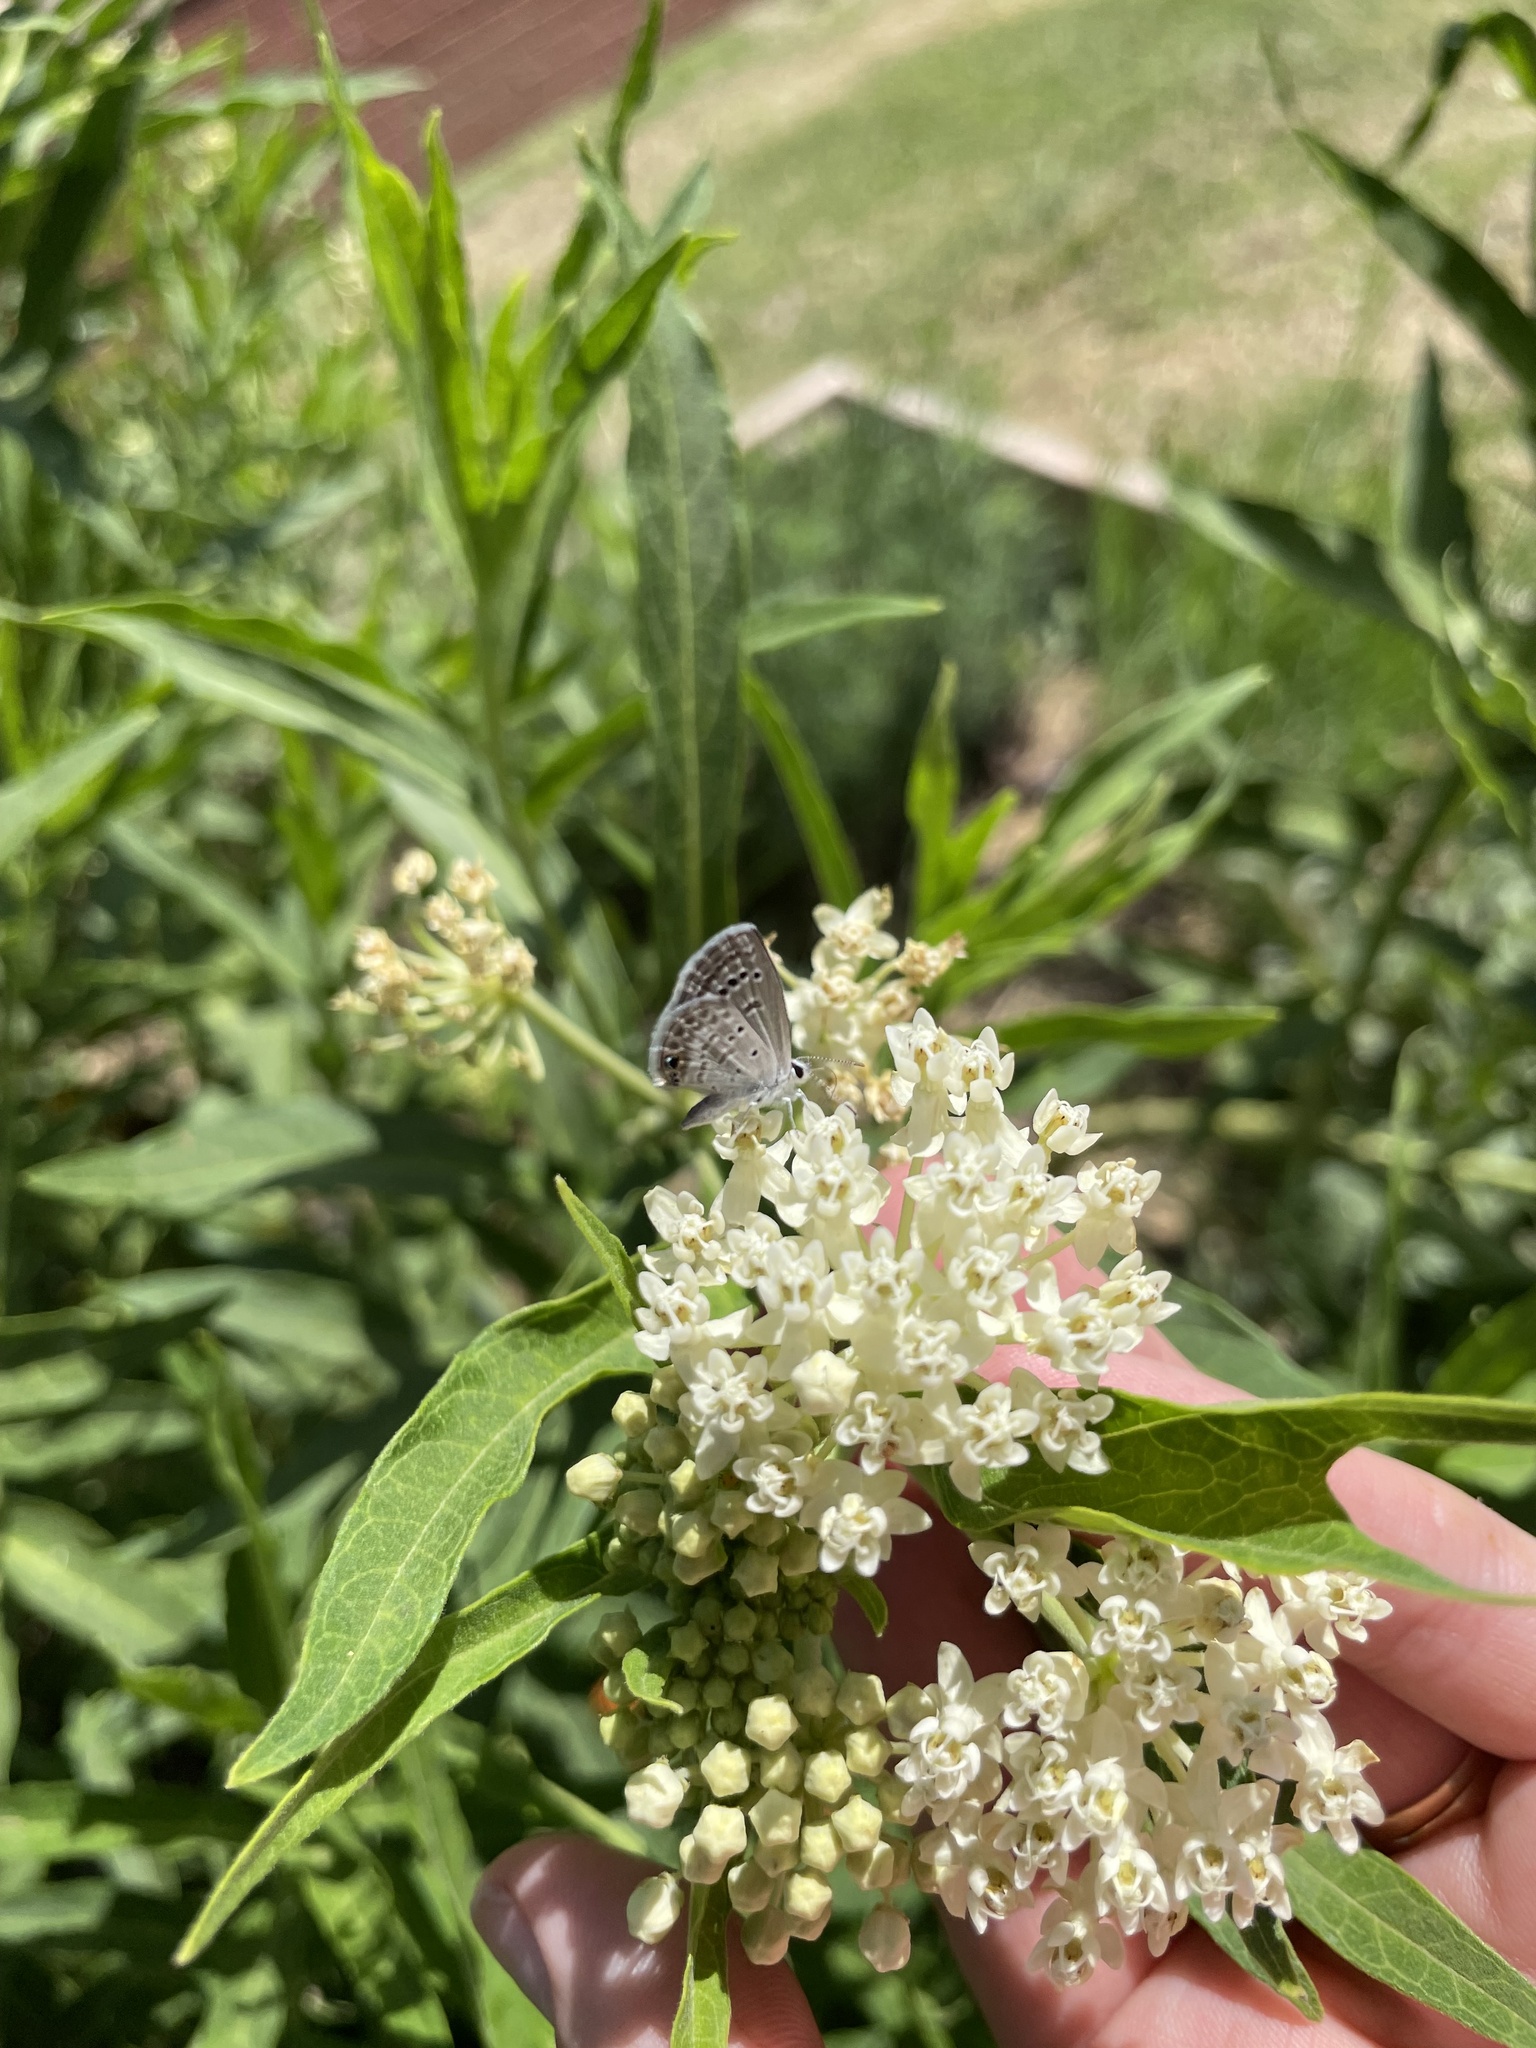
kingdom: Animalia
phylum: Arthropoda
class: Insecta
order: Lepidoptera
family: Lycaenidae
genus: Echinargus
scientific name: Echinargus isola
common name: Reakirt's blue
